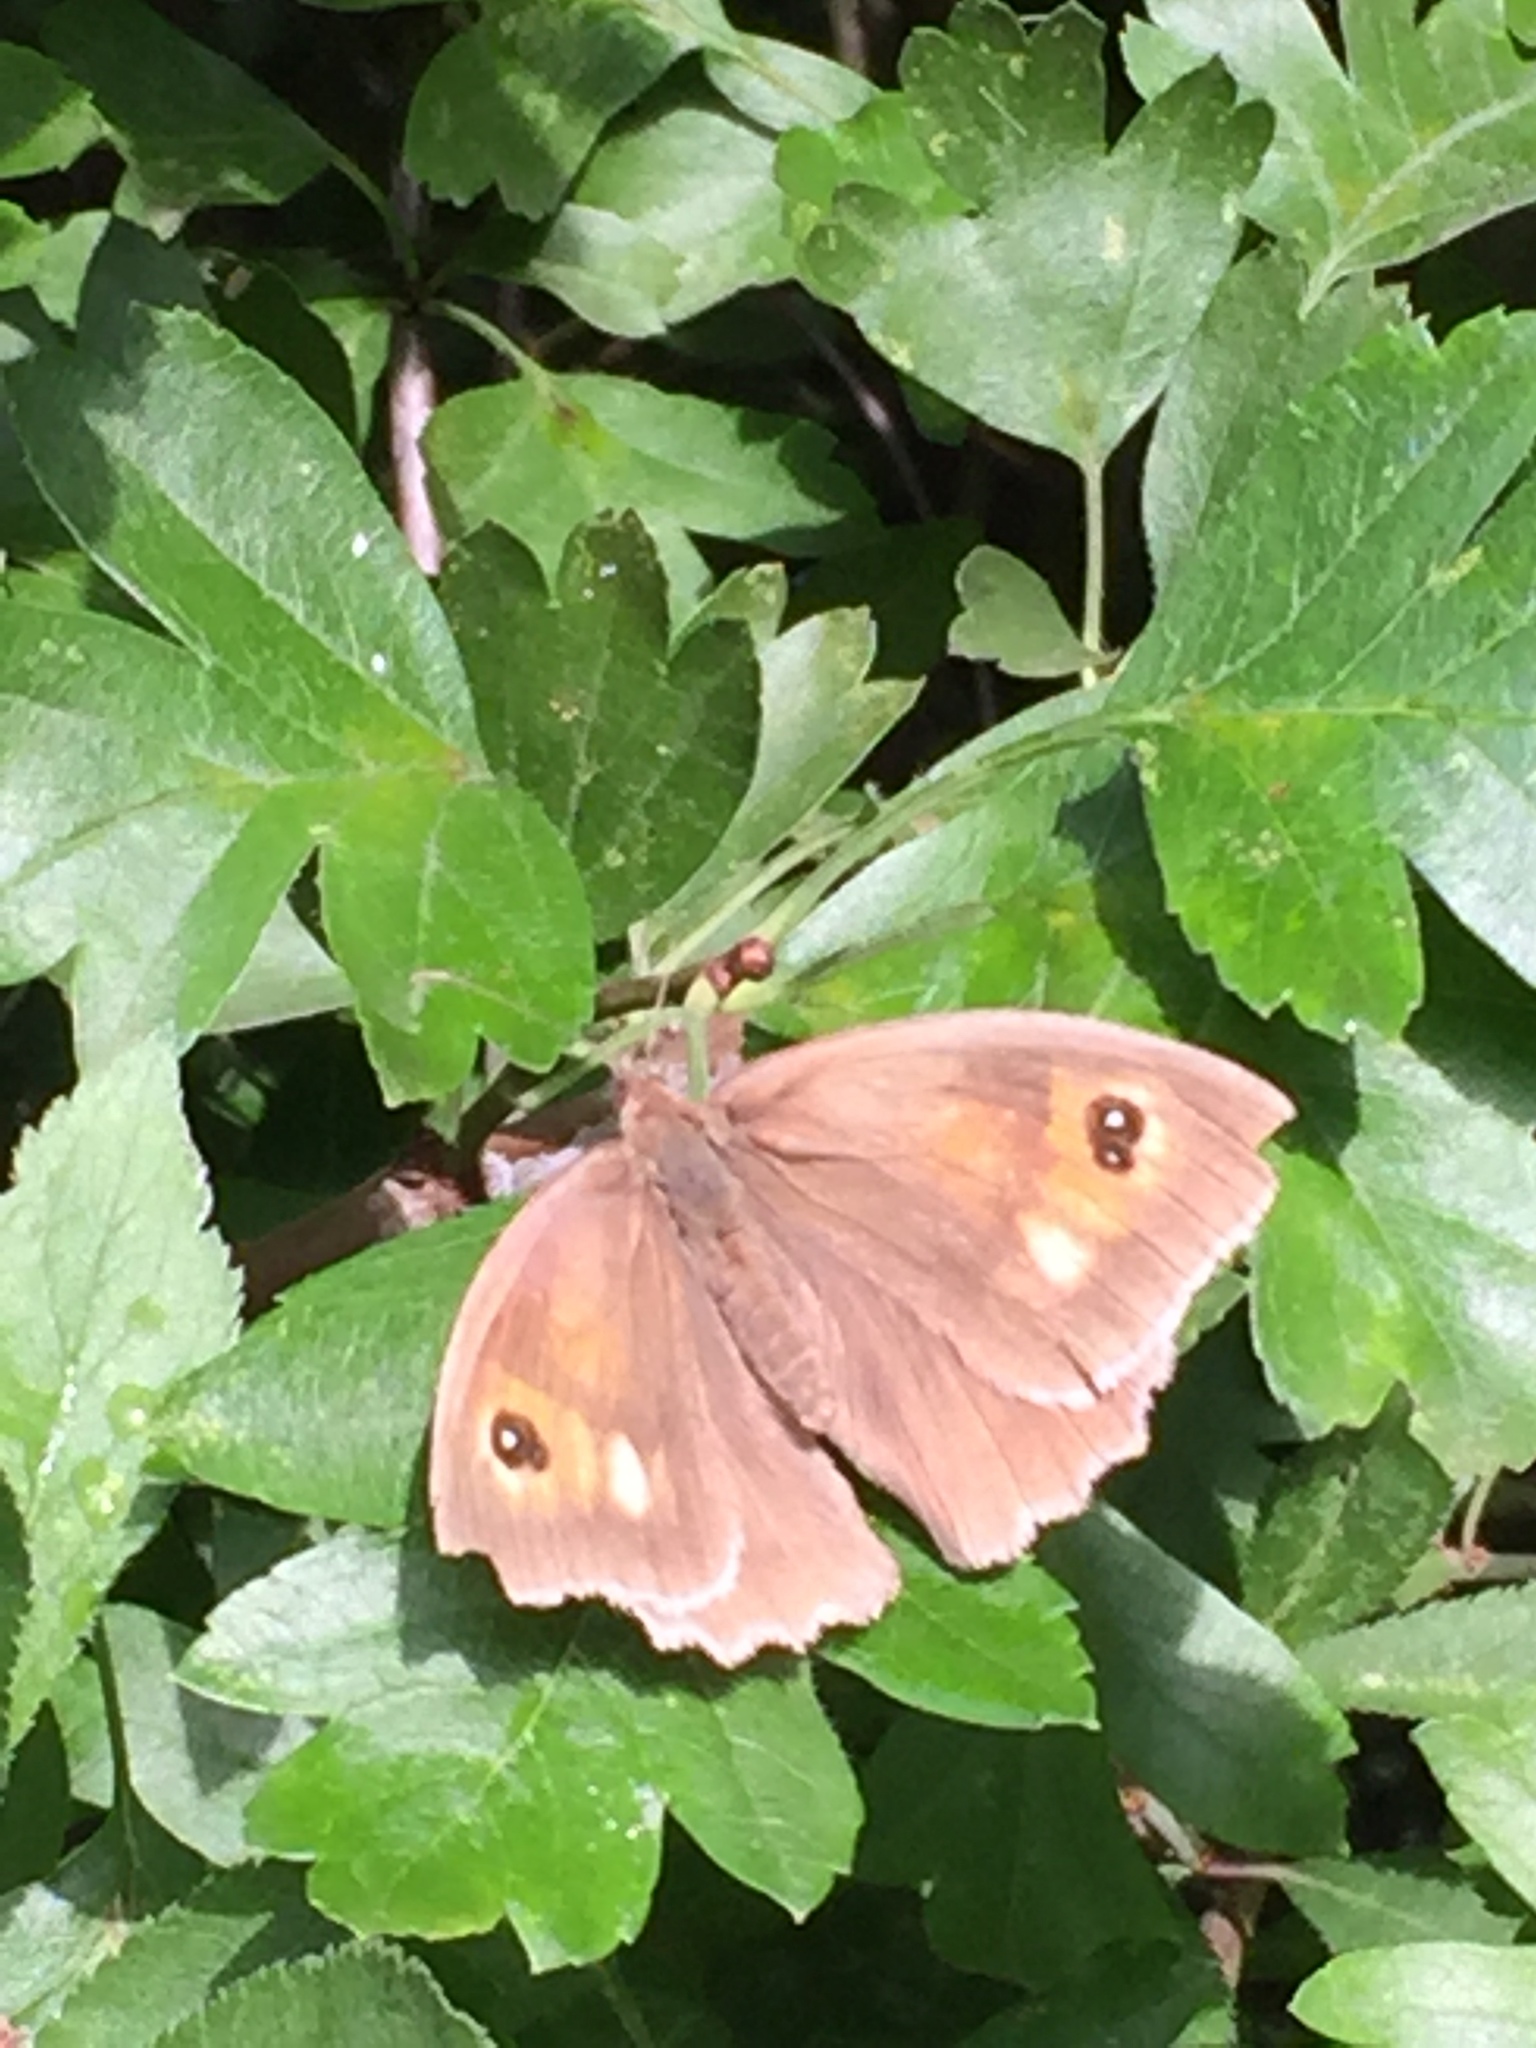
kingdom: Animalia
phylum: Arthropoda
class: Insecta
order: Lepidoptera
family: Nymphalidae
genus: Maniola
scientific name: Maniola jurtina
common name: Meadow brown
